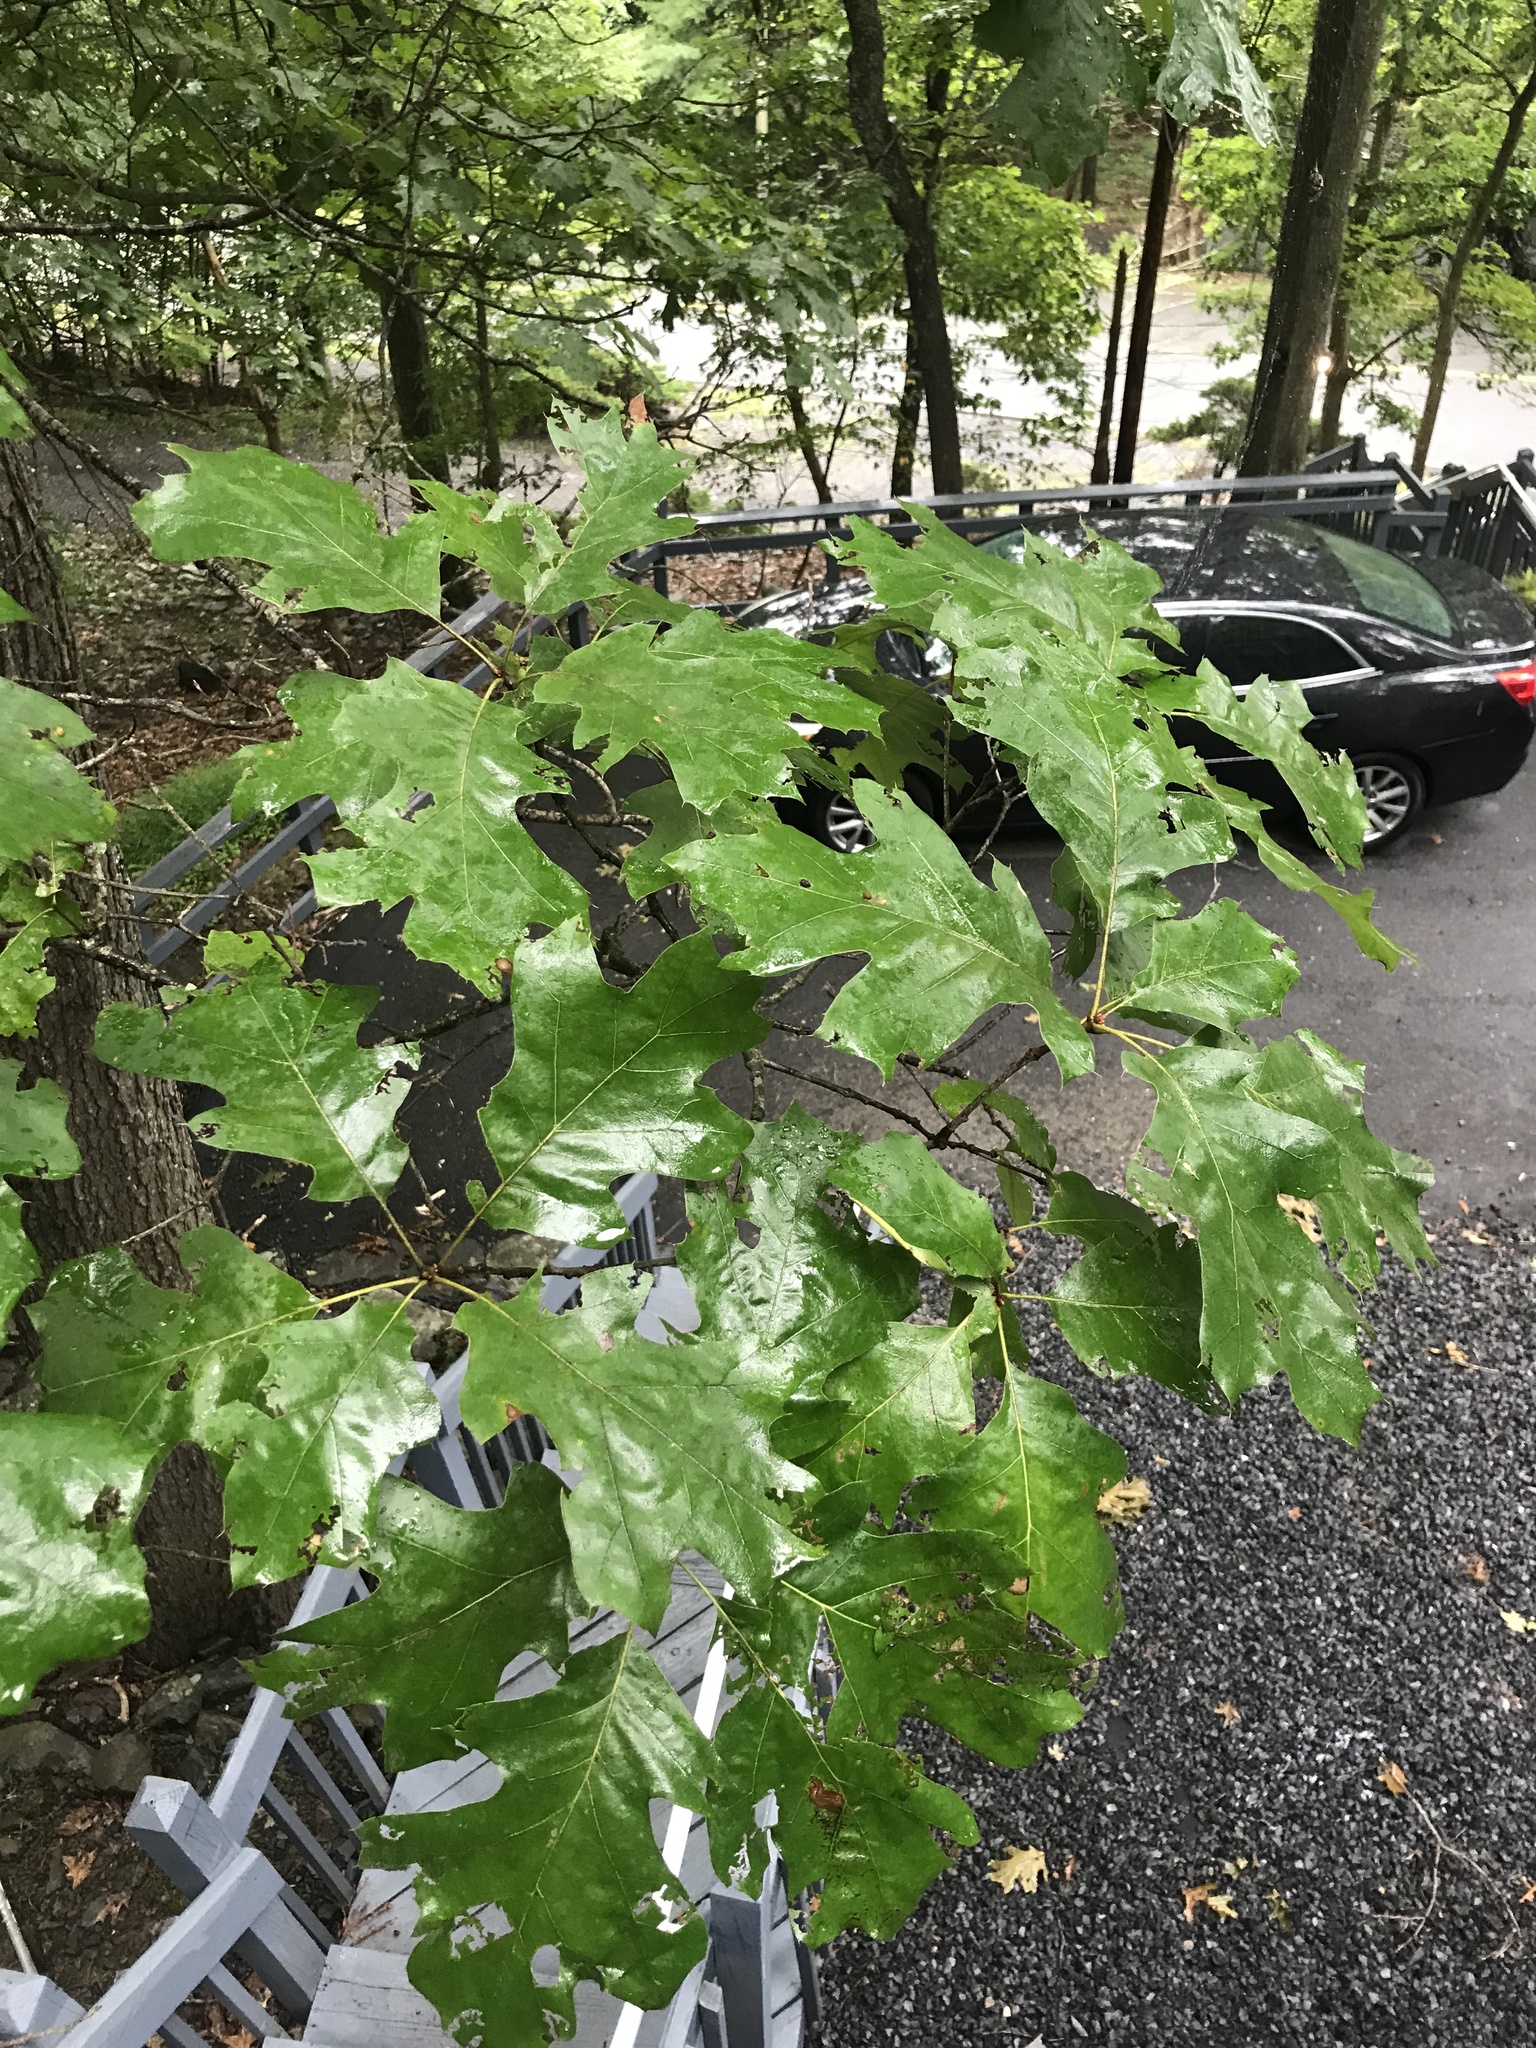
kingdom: Plantae
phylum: Tracheophyta
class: Magnoliopsida
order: Fagales
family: Fagaceae
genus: Quercus
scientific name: Quercus velutina
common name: Black oak
